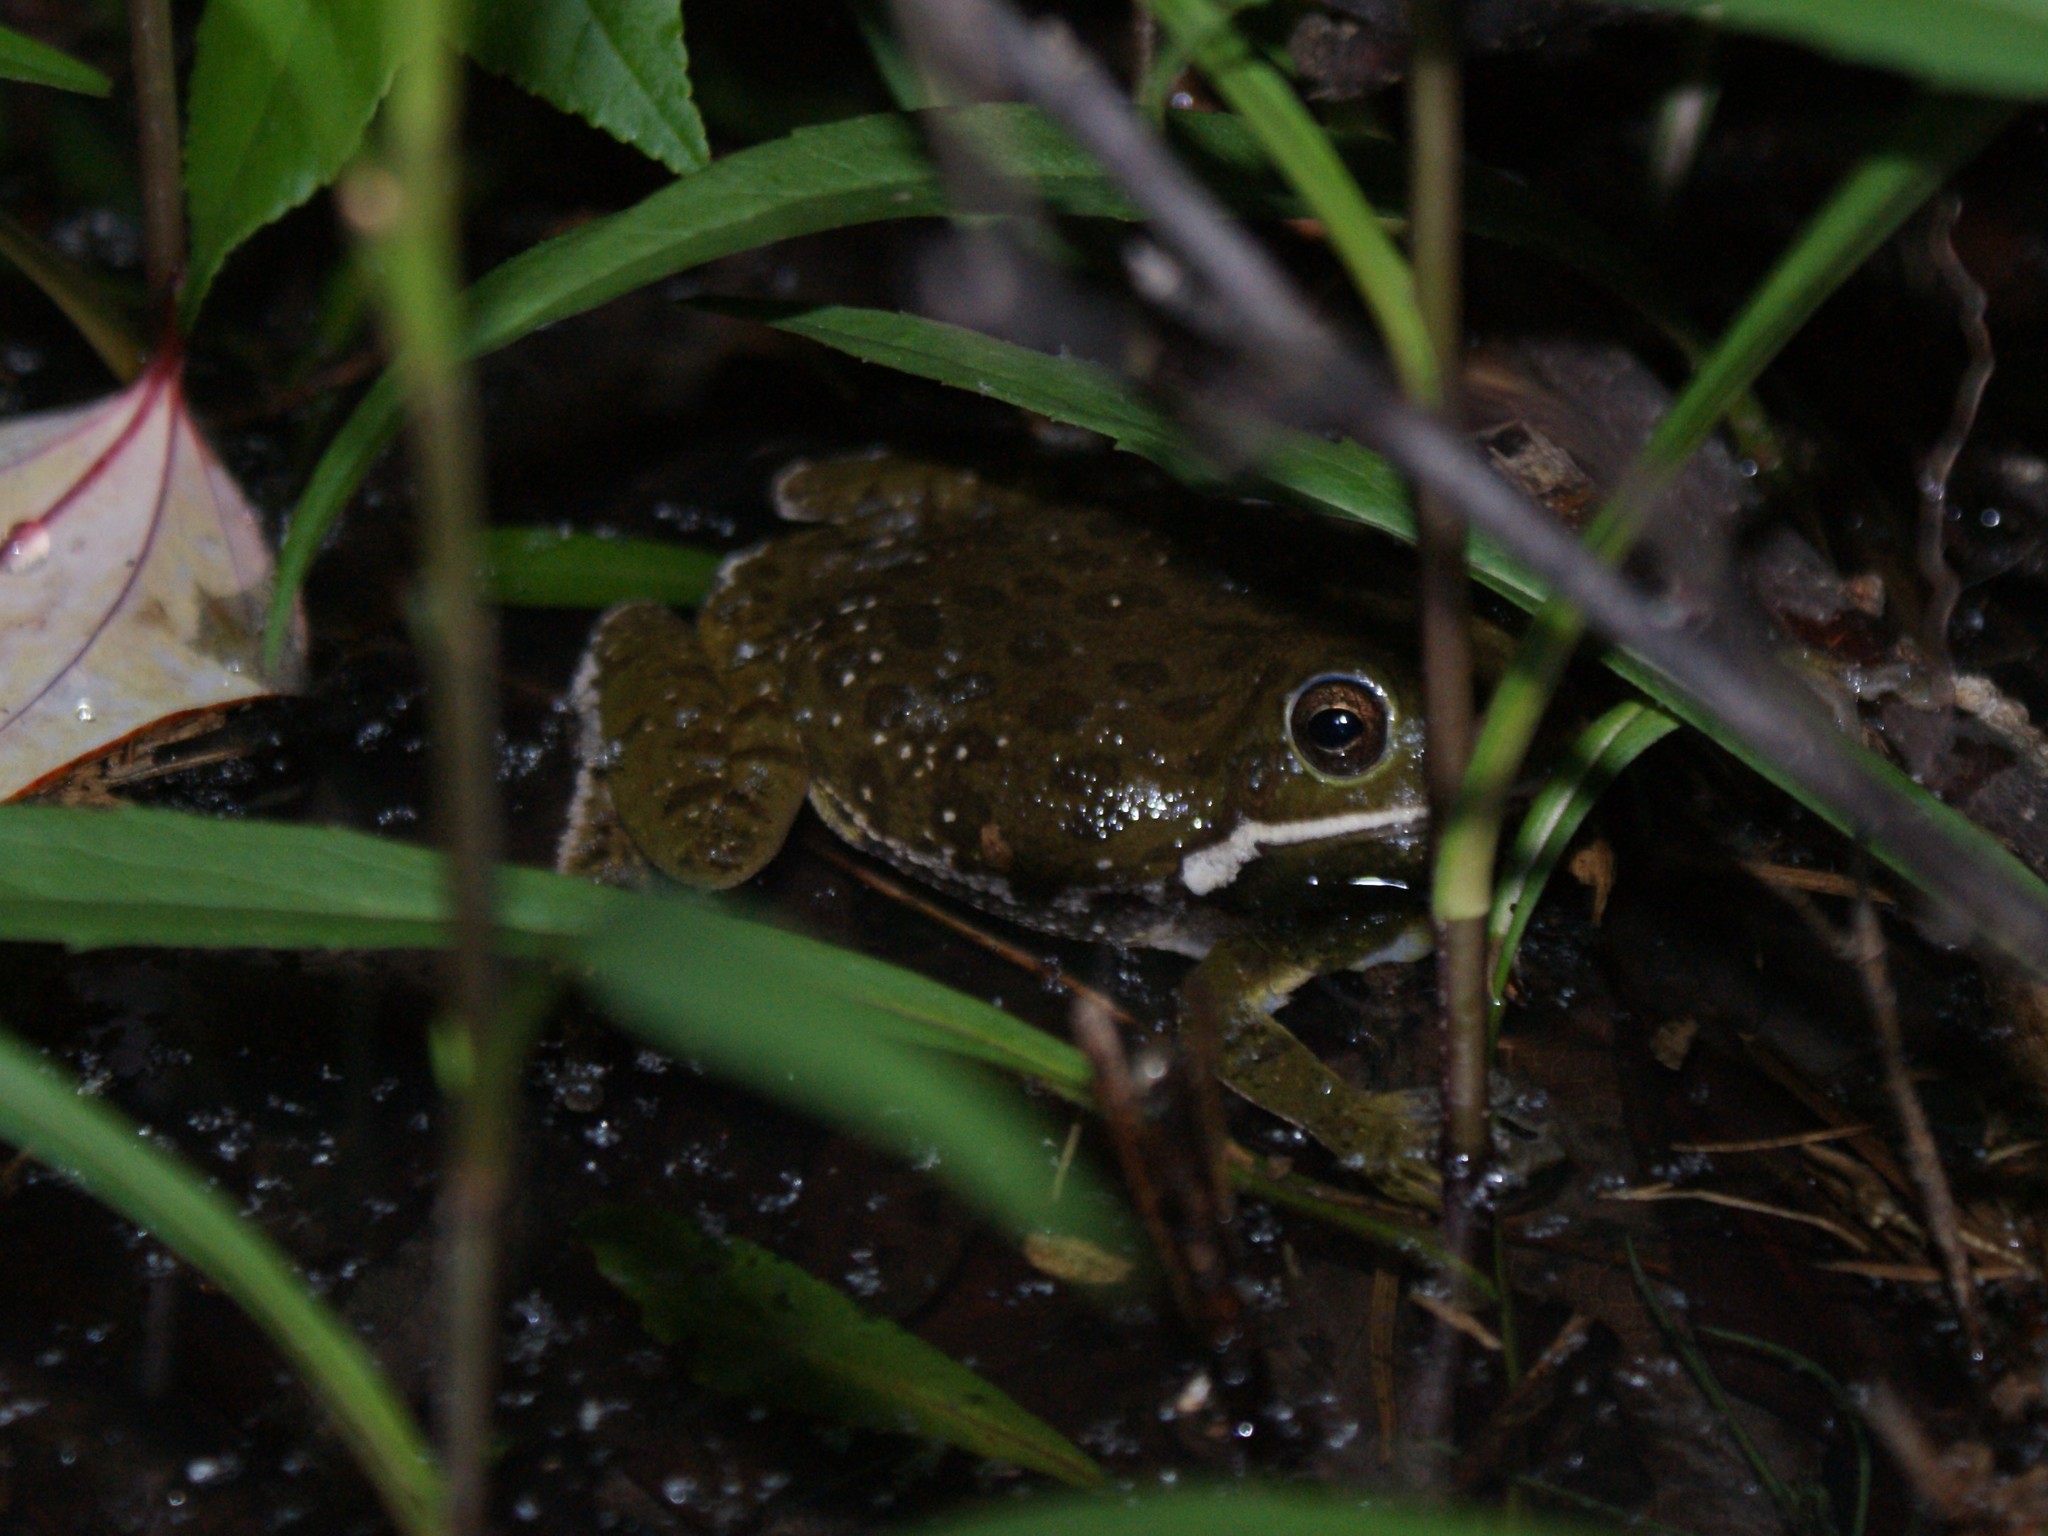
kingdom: Animalia
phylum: Chordata
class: Amphibia
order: Anura
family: Hylidae
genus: Dryophytes
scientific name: Dryophytes gratiosus
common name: Barking treefrog
